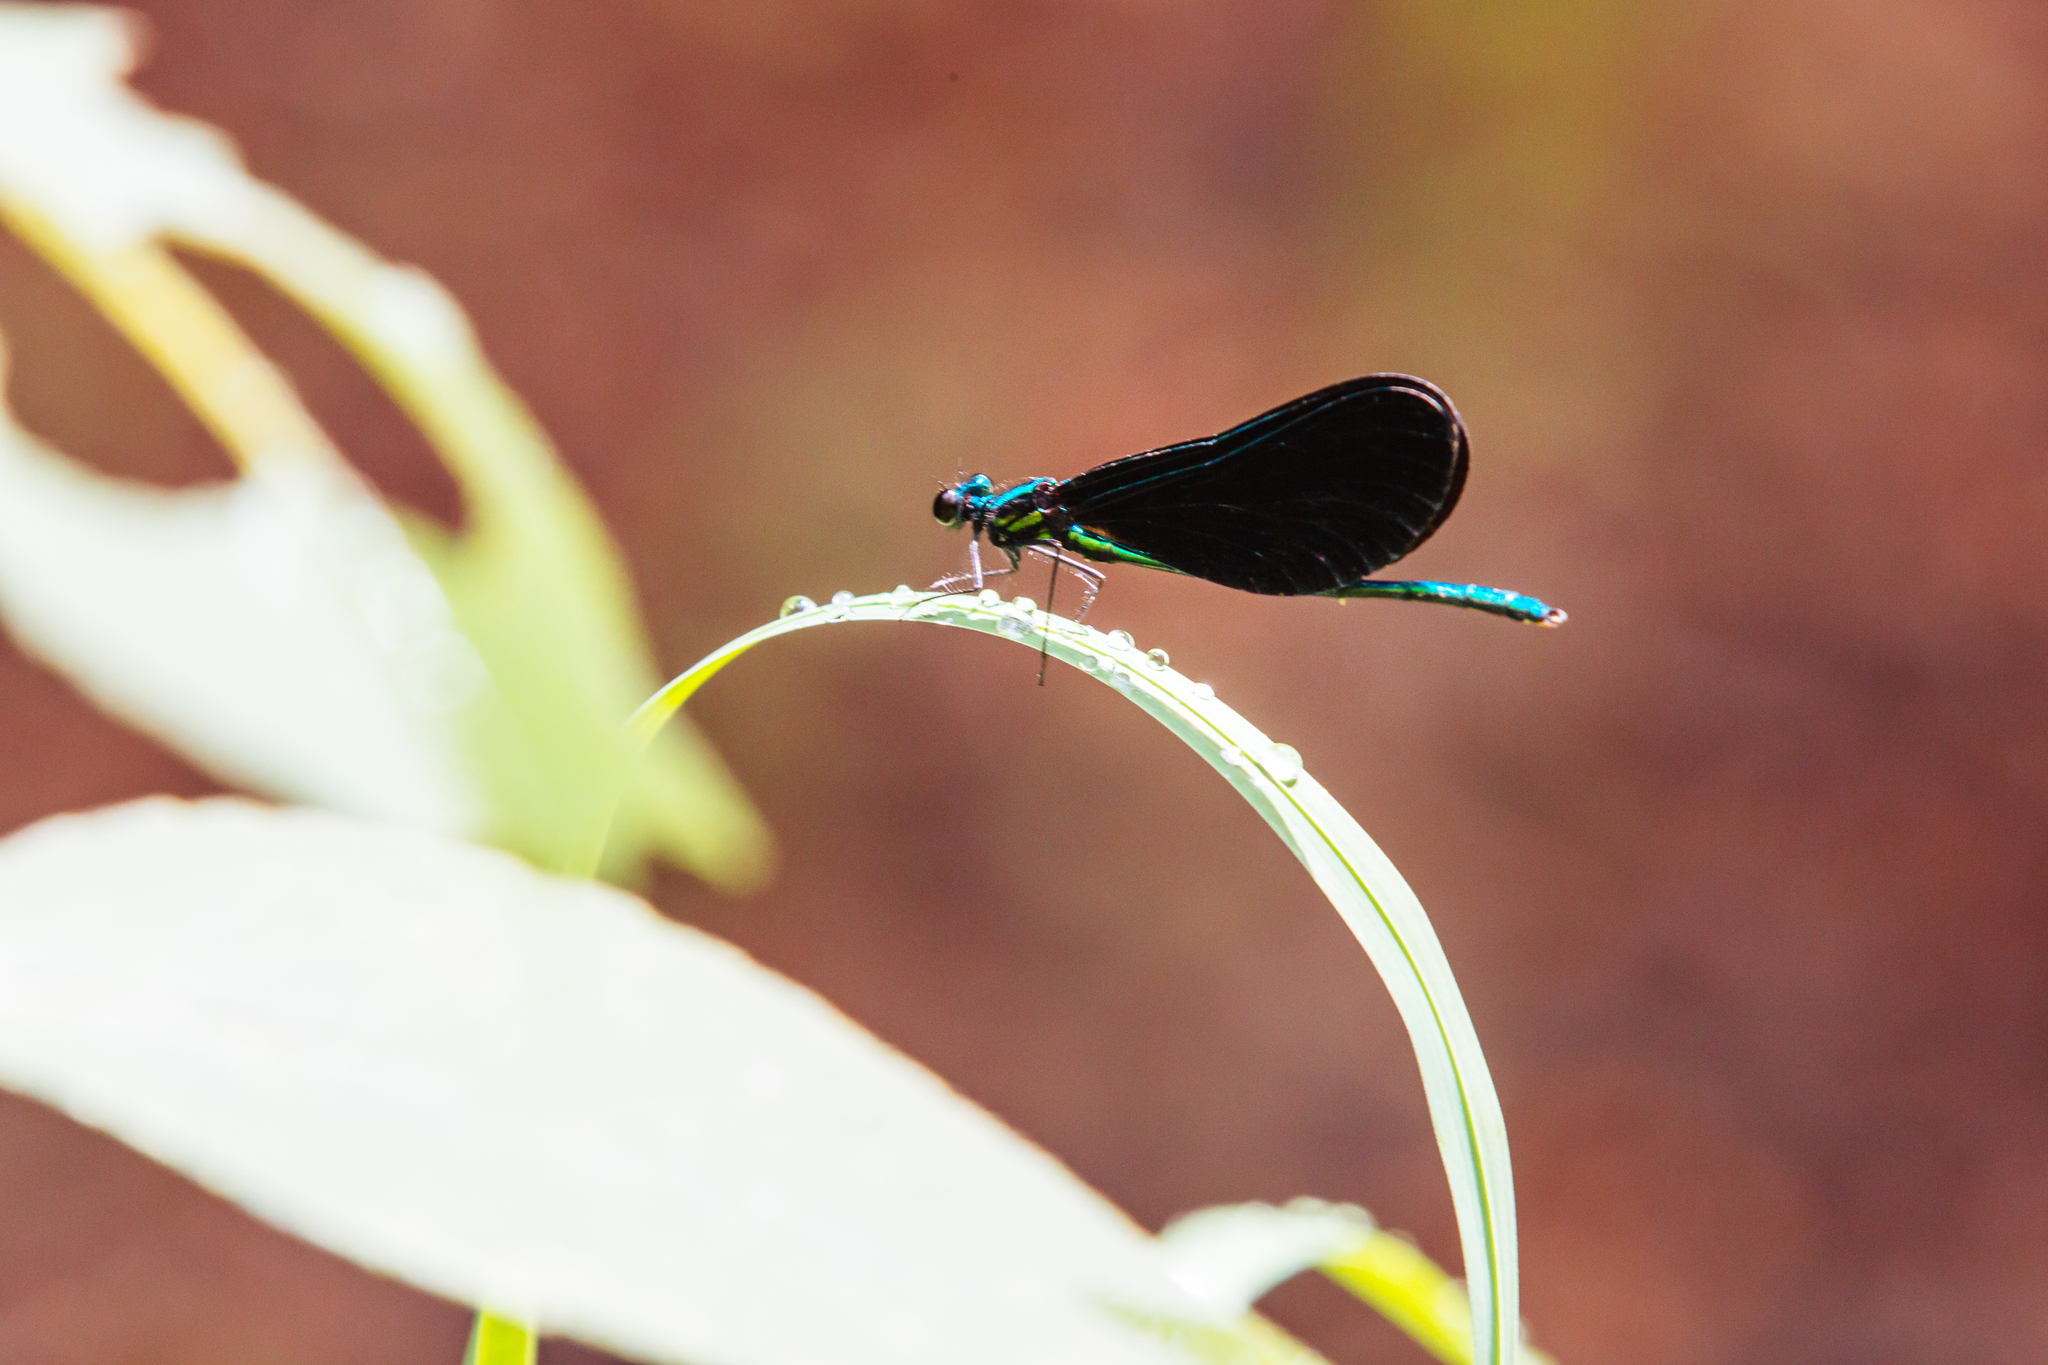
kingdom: Animalia
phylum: Arthropoda
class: Insecta
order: Odonata
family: Calopterygidae
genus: Calopteryx
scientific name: Calopteryx maculata
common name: Ebony jewelwing
